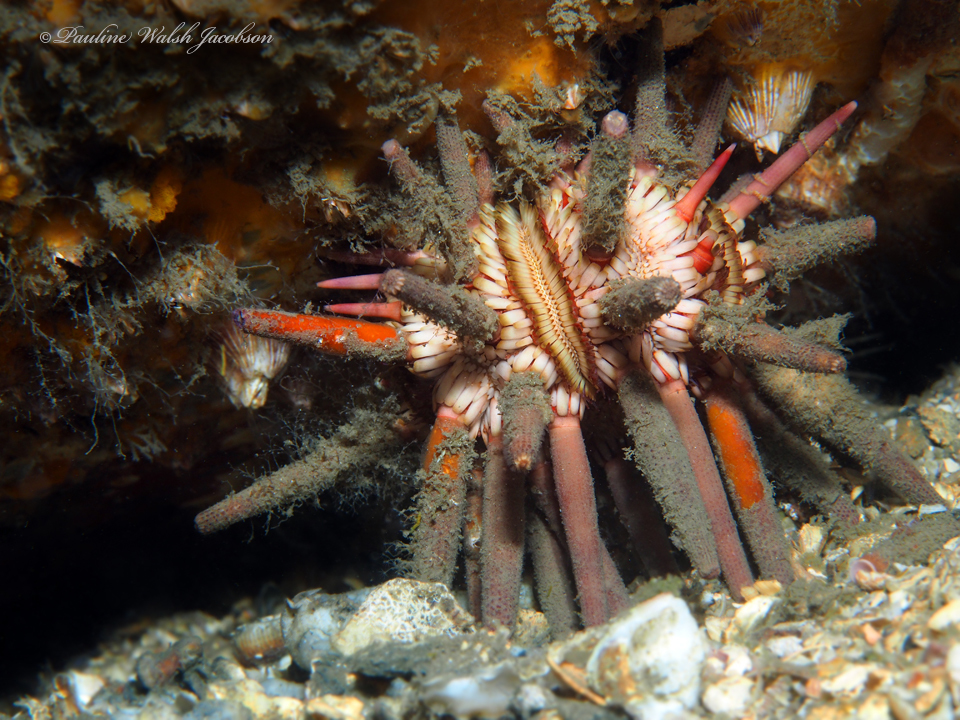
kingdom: Animalia
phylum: Echinodermata
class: Echinoidea
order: Cidaroida
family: Cidaridae
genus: Eucidaris
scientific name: Eucidaris tribuloides
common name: Slate pencil urchin
